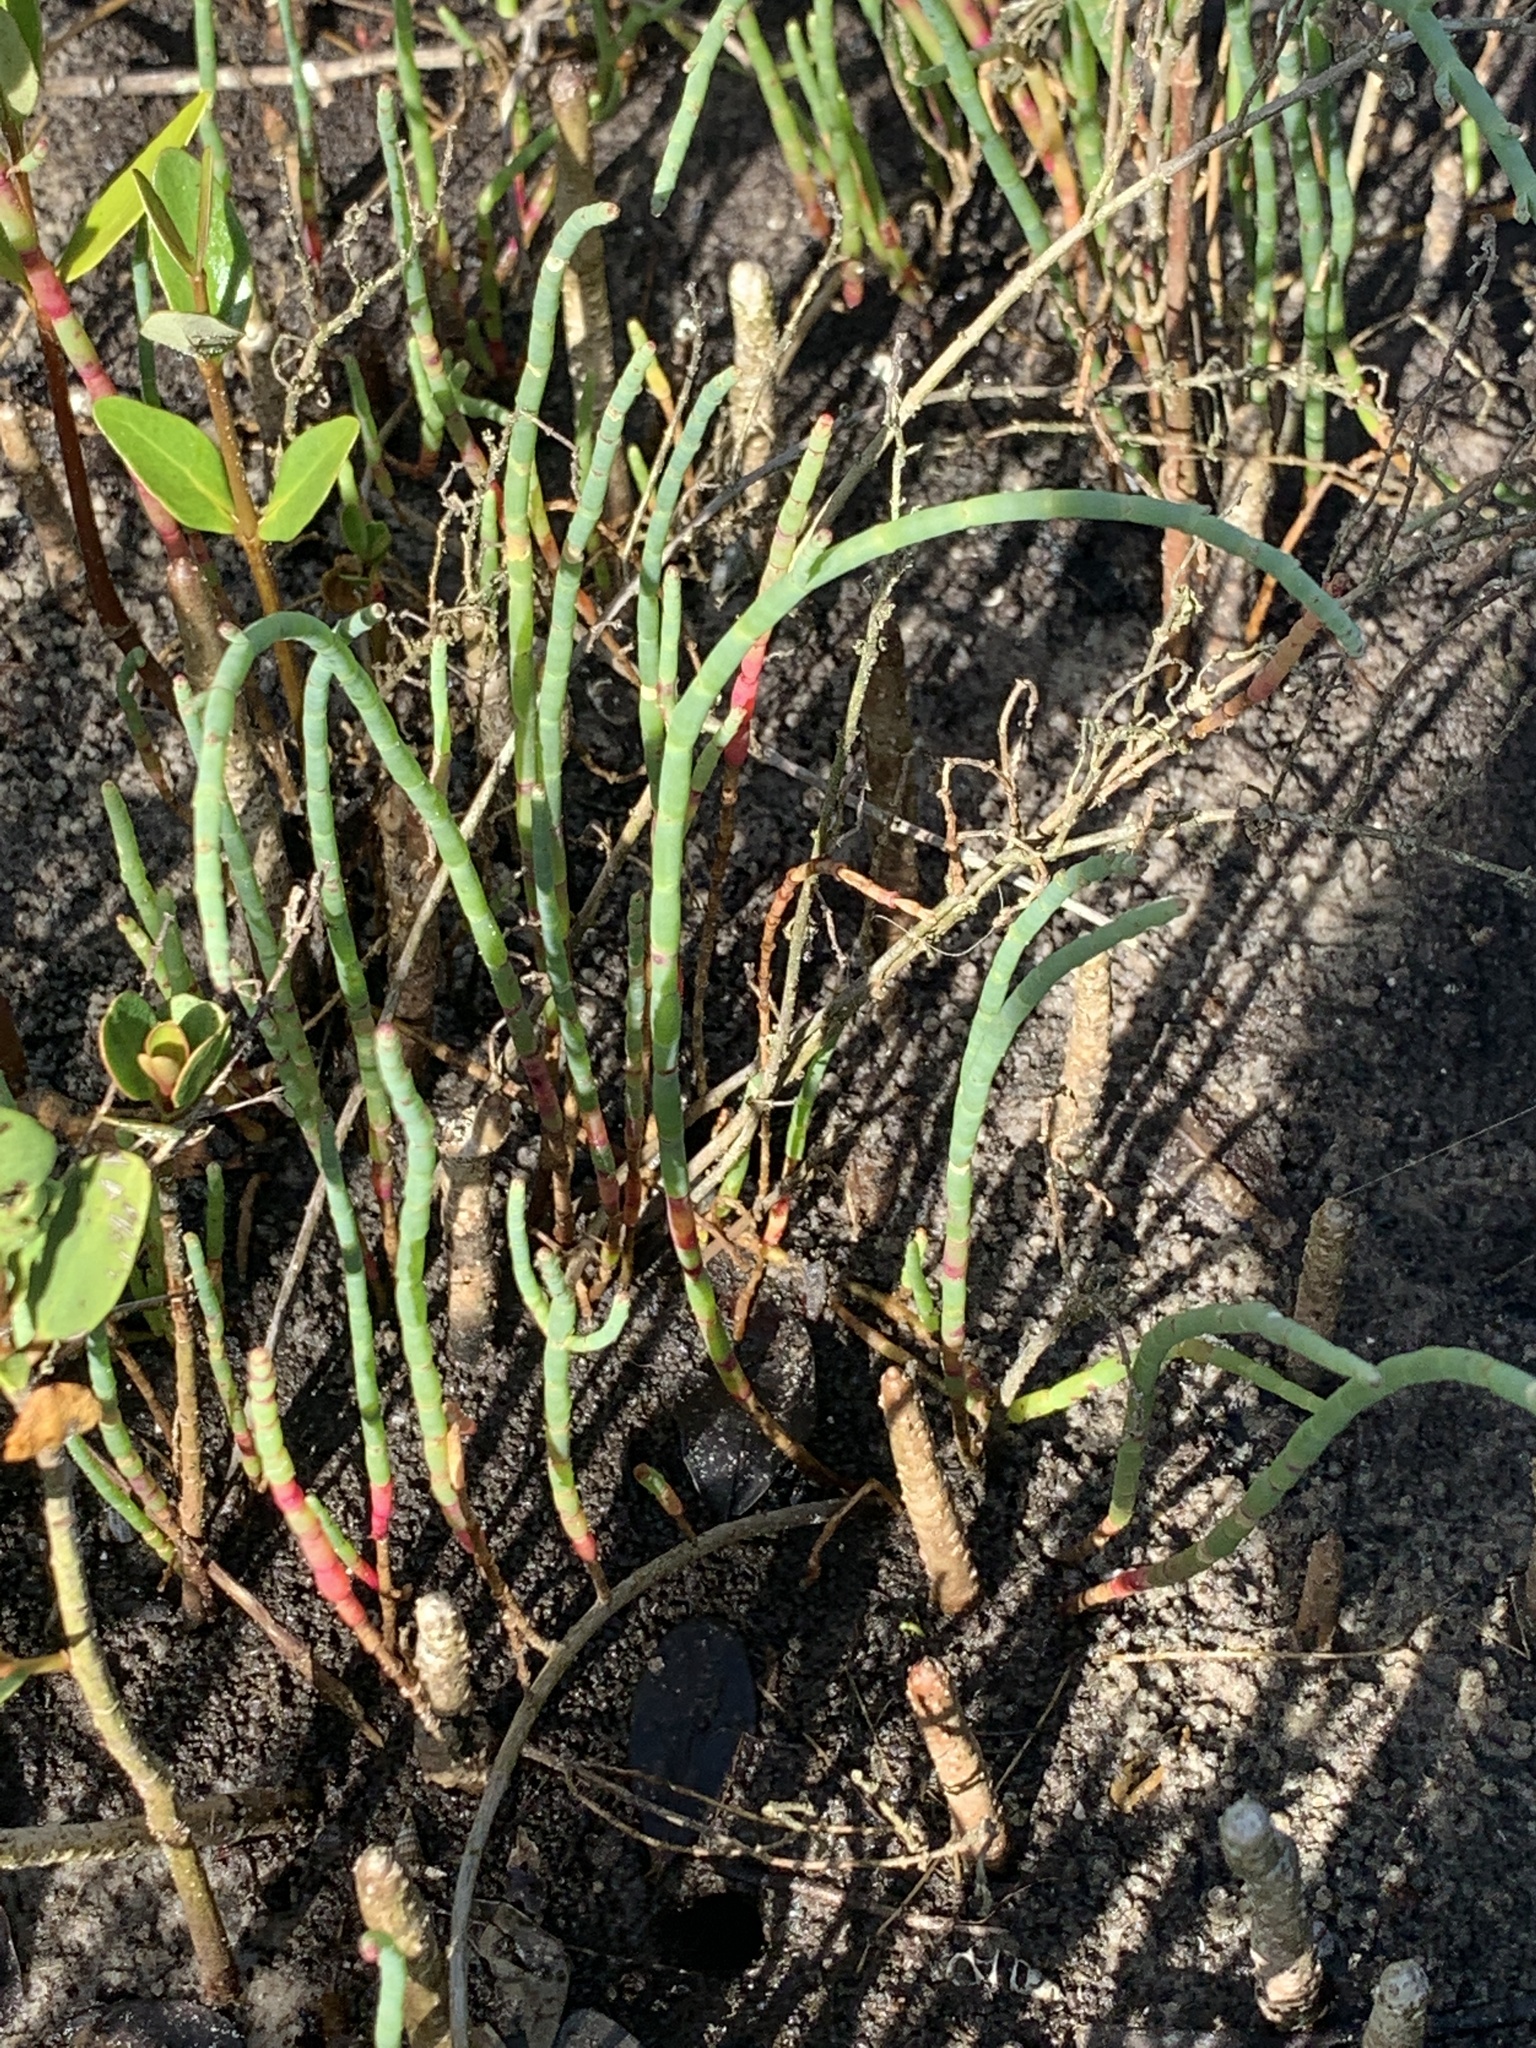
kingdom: Plantae
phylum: Tracheophyta
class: Magnoliopsida
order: Caryophyllales
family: Amaranthaceae
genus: Salicornia
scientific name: Salicornia ambigua
